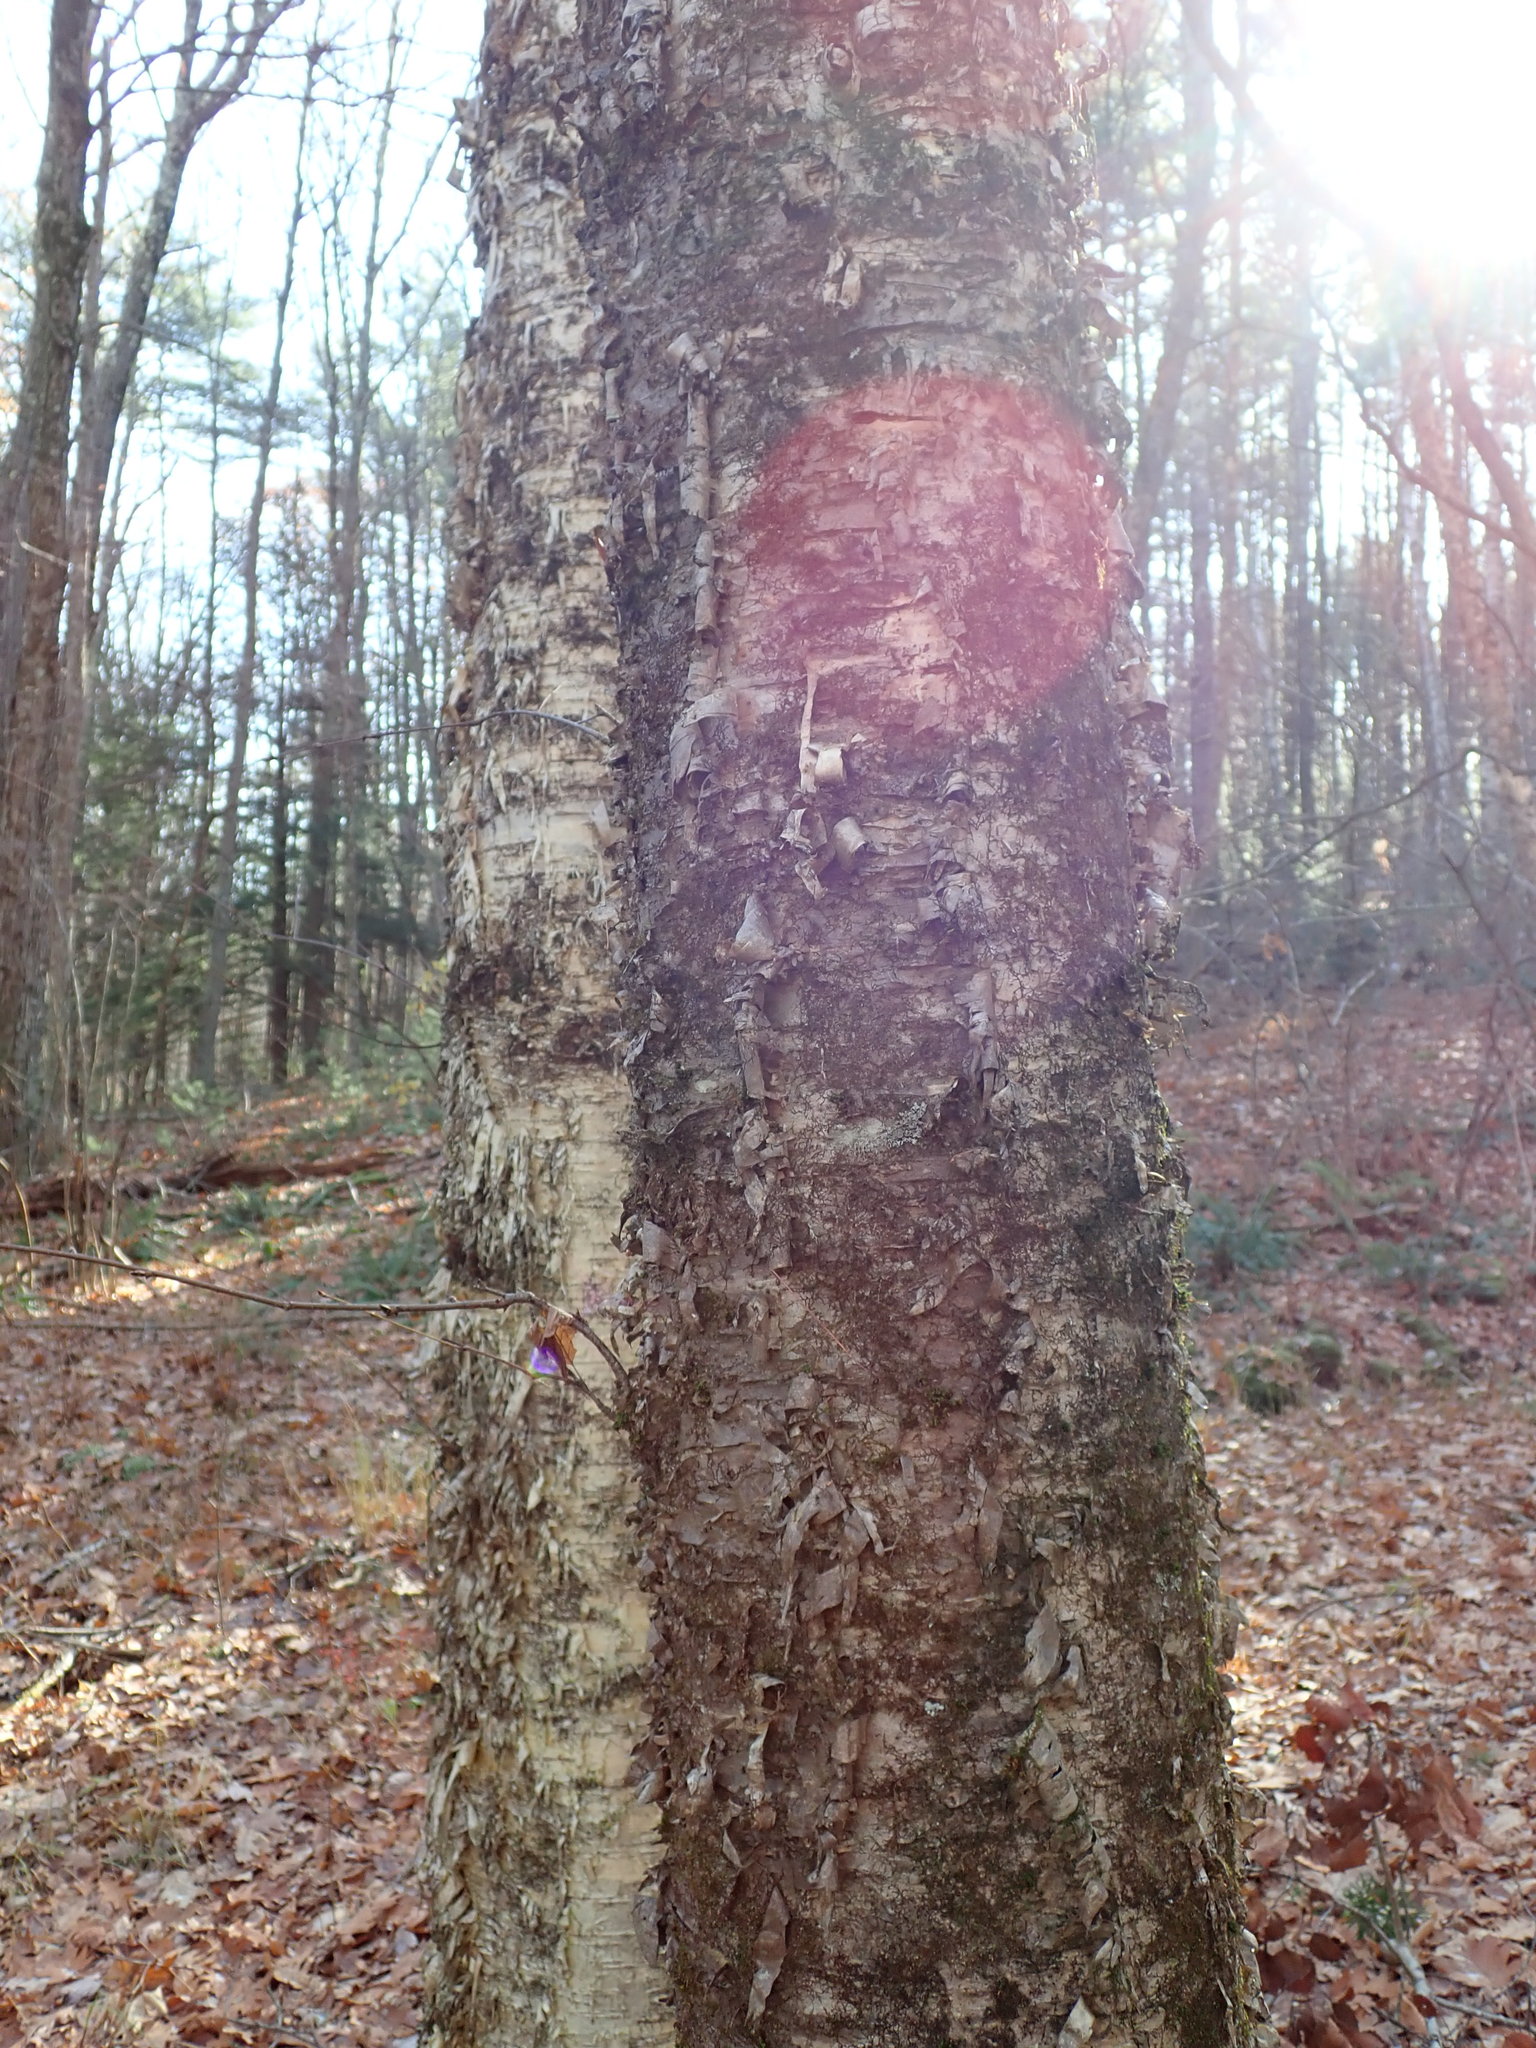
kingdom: Plantae
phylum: Tracheophyta
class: Magnoliopsida
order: Fagales
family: Betulaceae
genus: Betula
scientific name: Betula alleghaniensis
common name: Yellow birch
